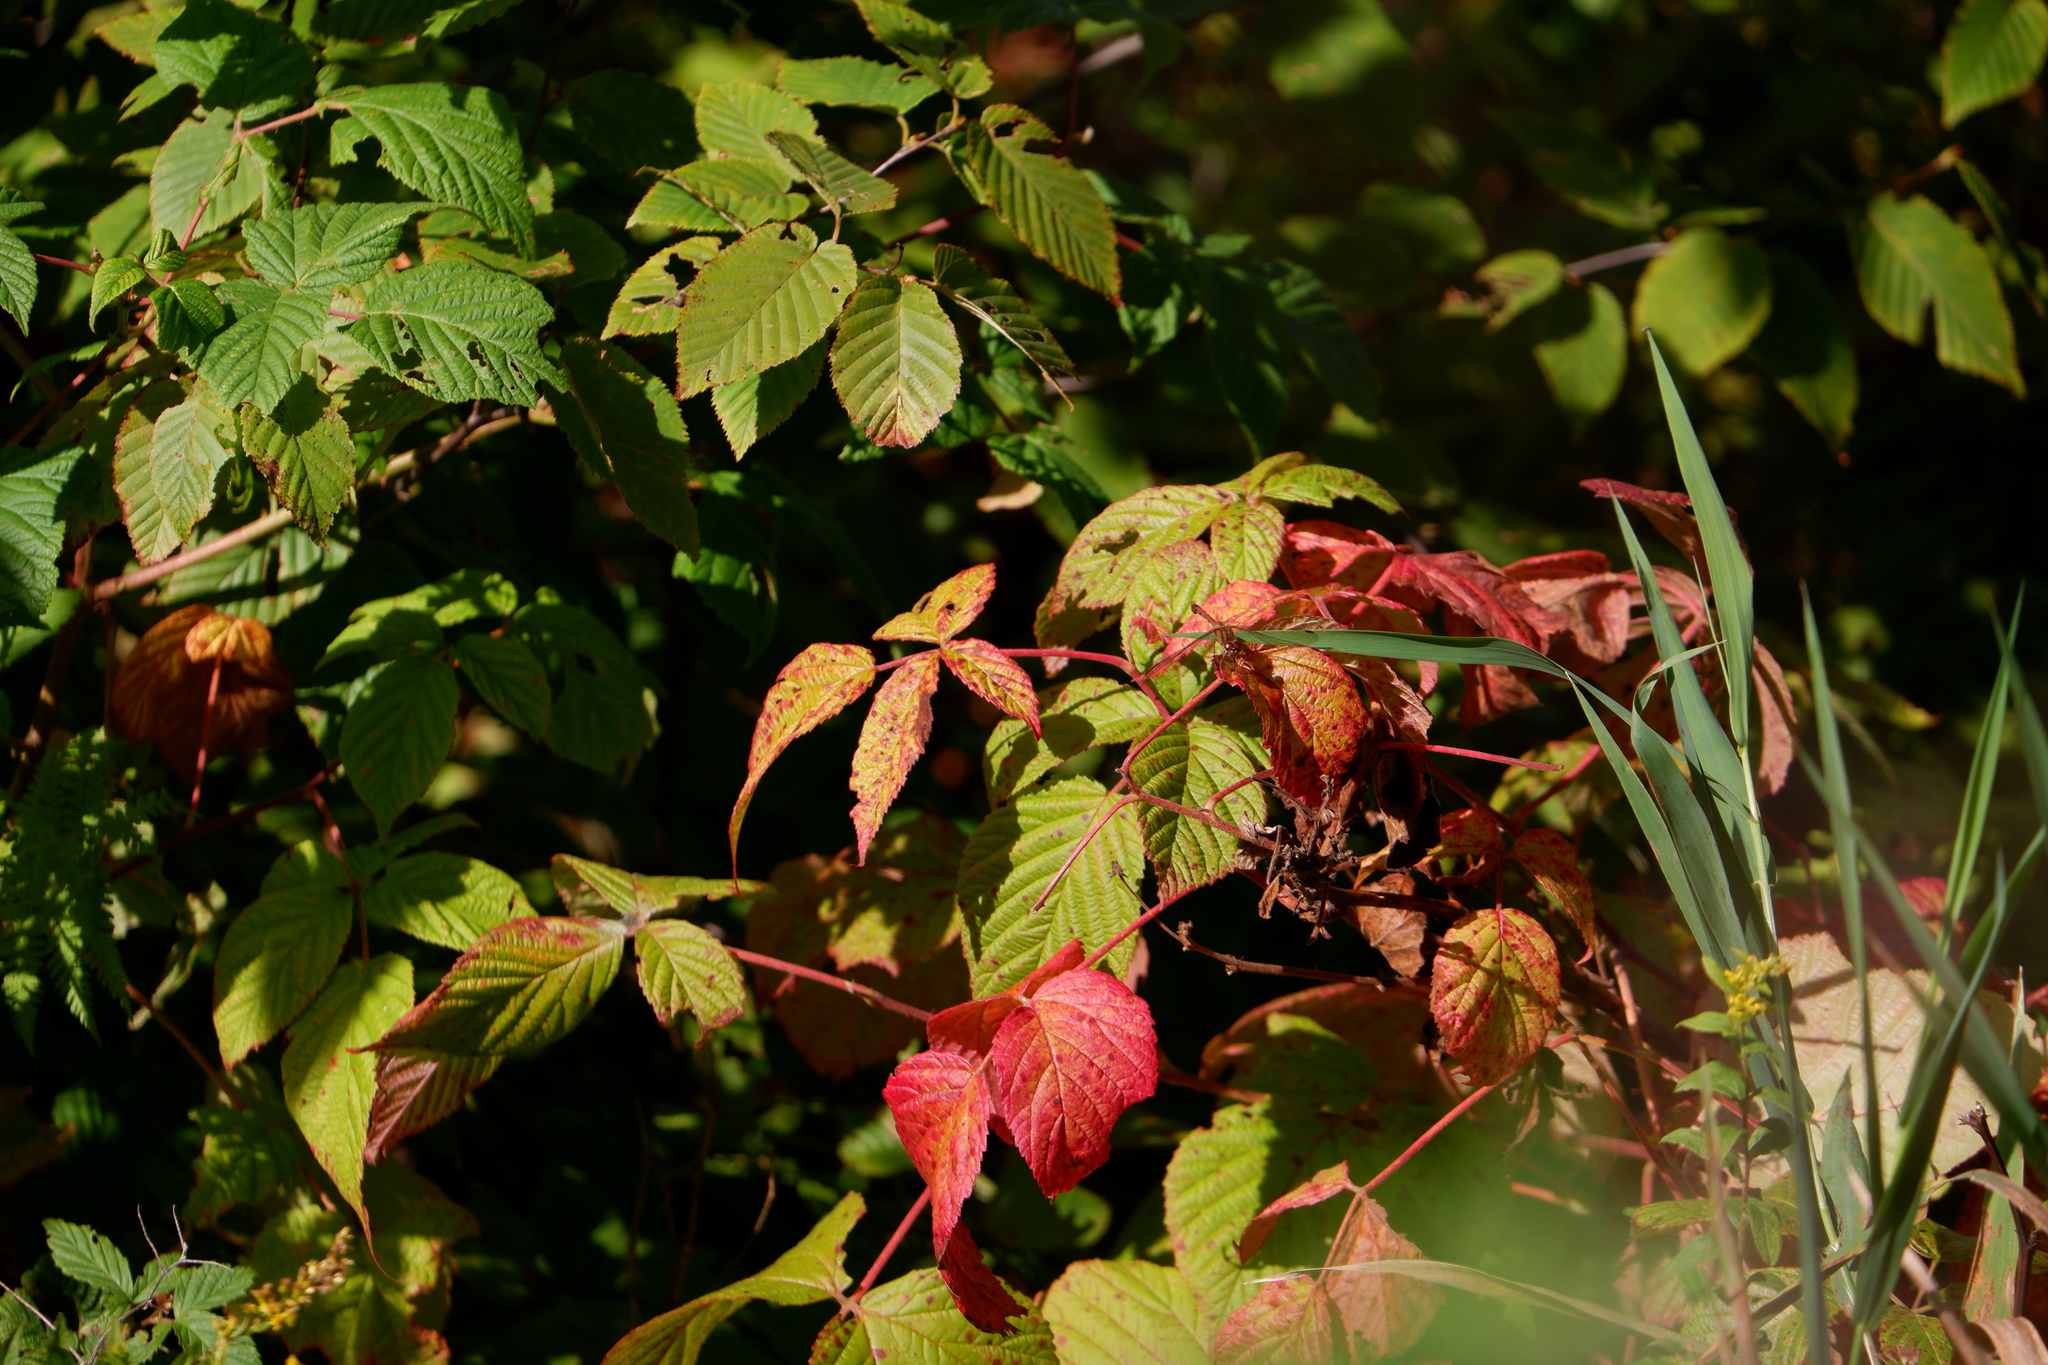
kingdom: Animalia
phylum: Arthropoda
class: Insecta
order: Odonata
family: Libellulidae
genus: Sympetrum
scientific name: Sympetrum vicinum
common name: Autumn meadowhawk
